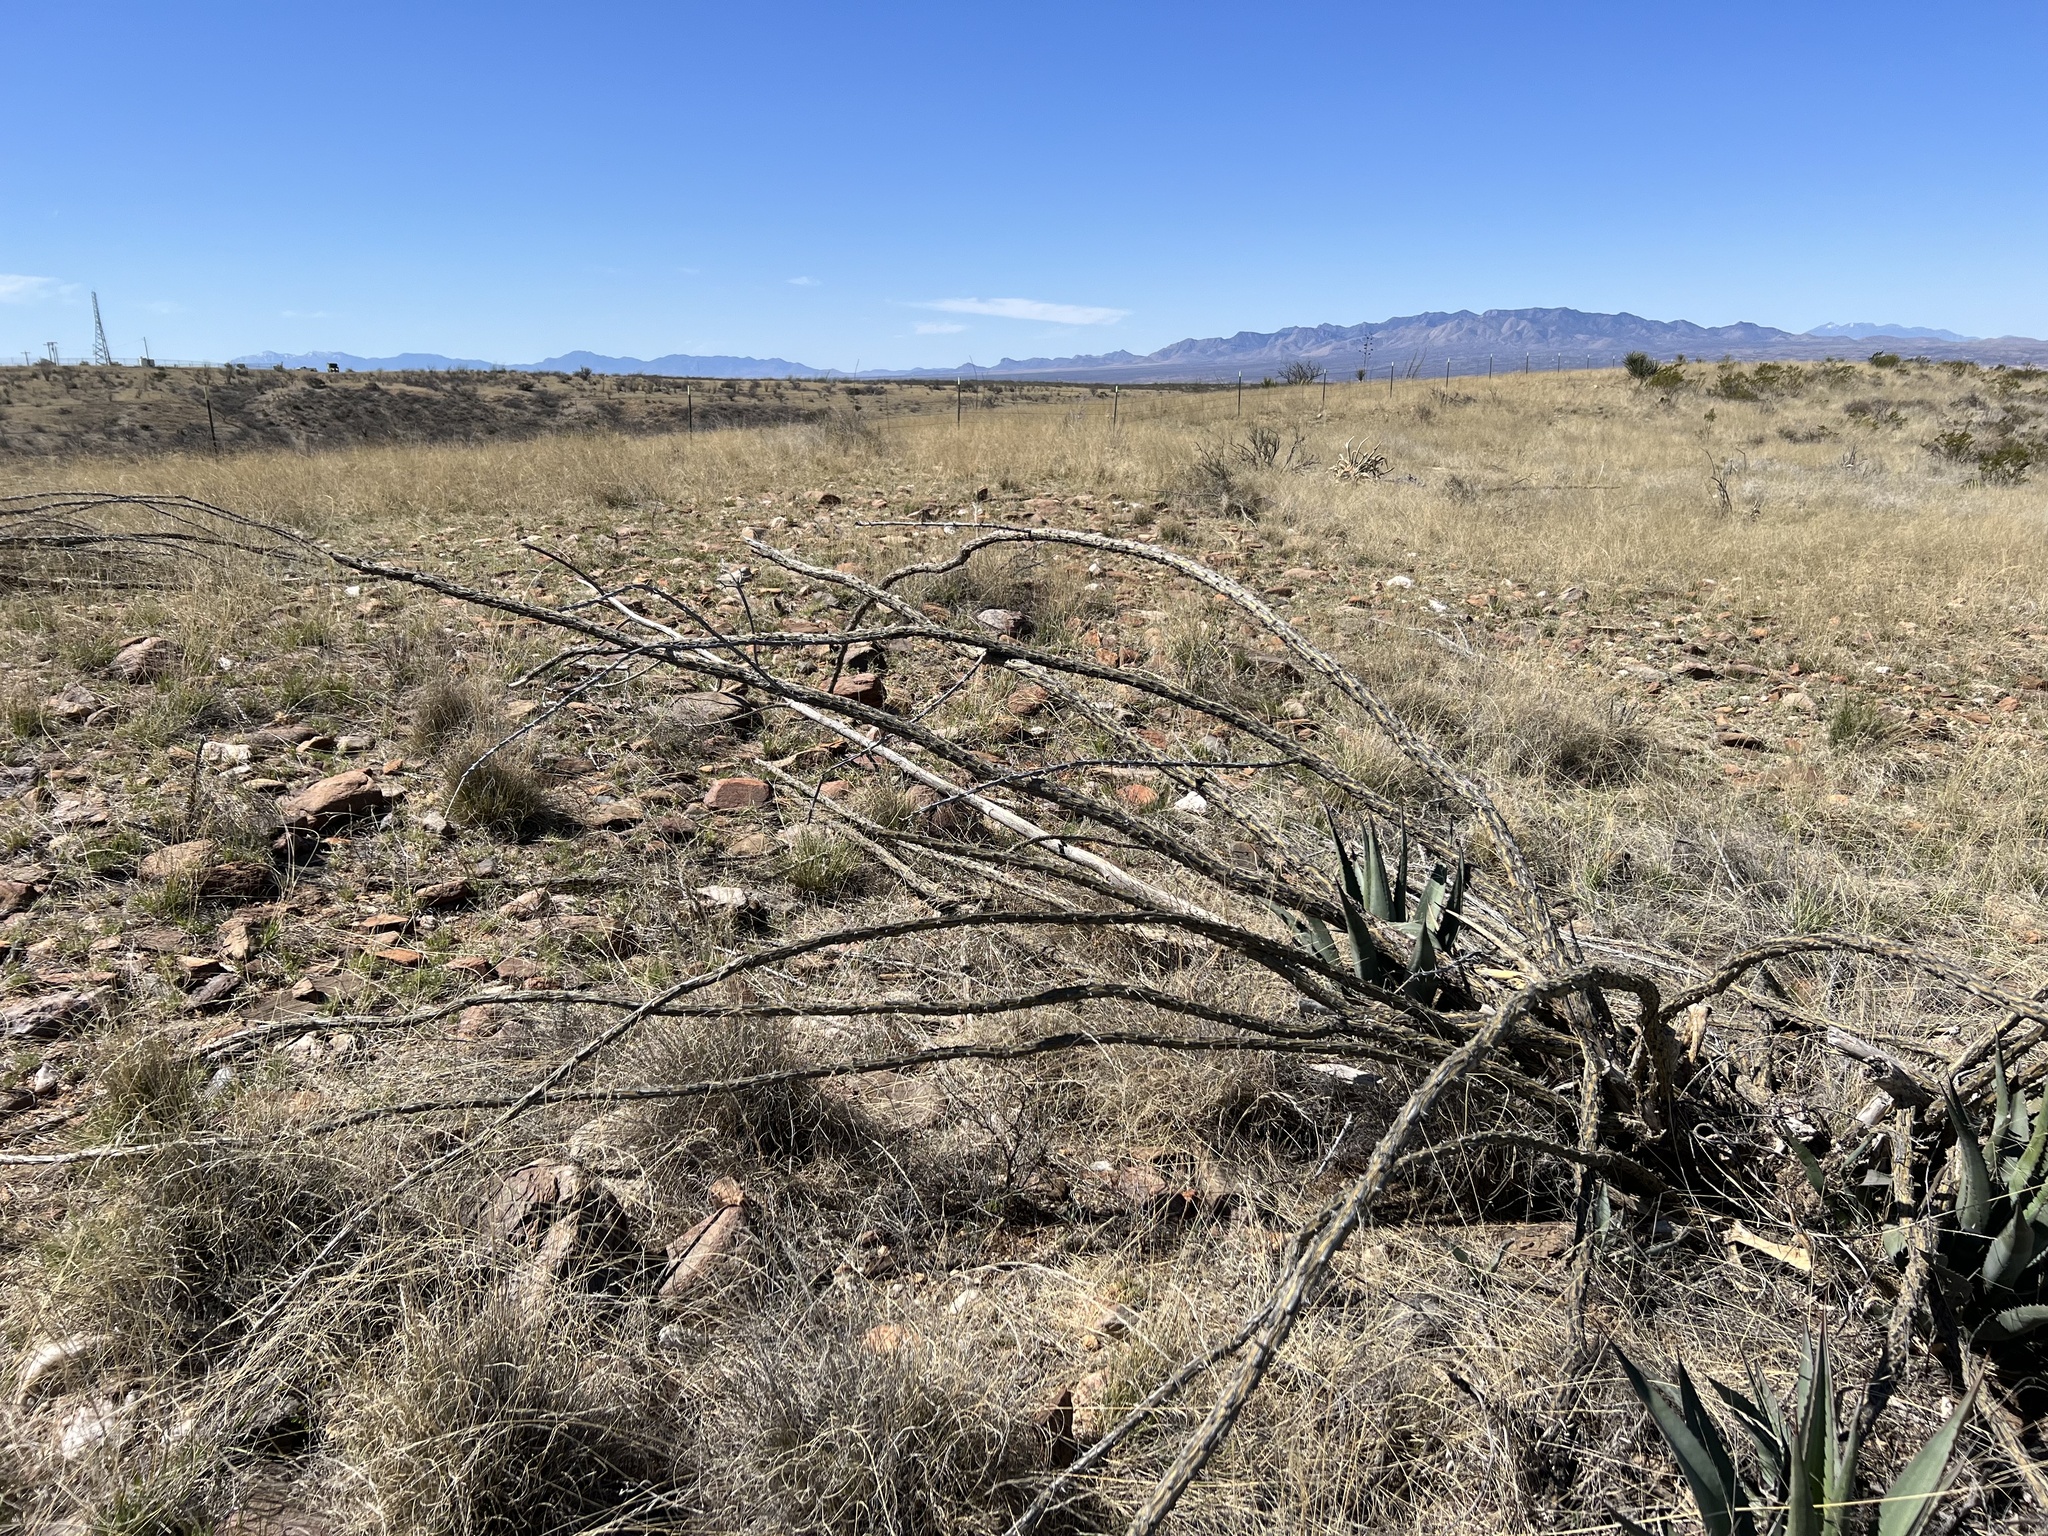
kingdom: Plantae
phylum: Tracheophyta
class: Magnoliopsida
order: Ericales
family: Fouquieriaceae
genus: Fouquieria
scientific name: Fouquieria splendens
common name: Vine-cactus
